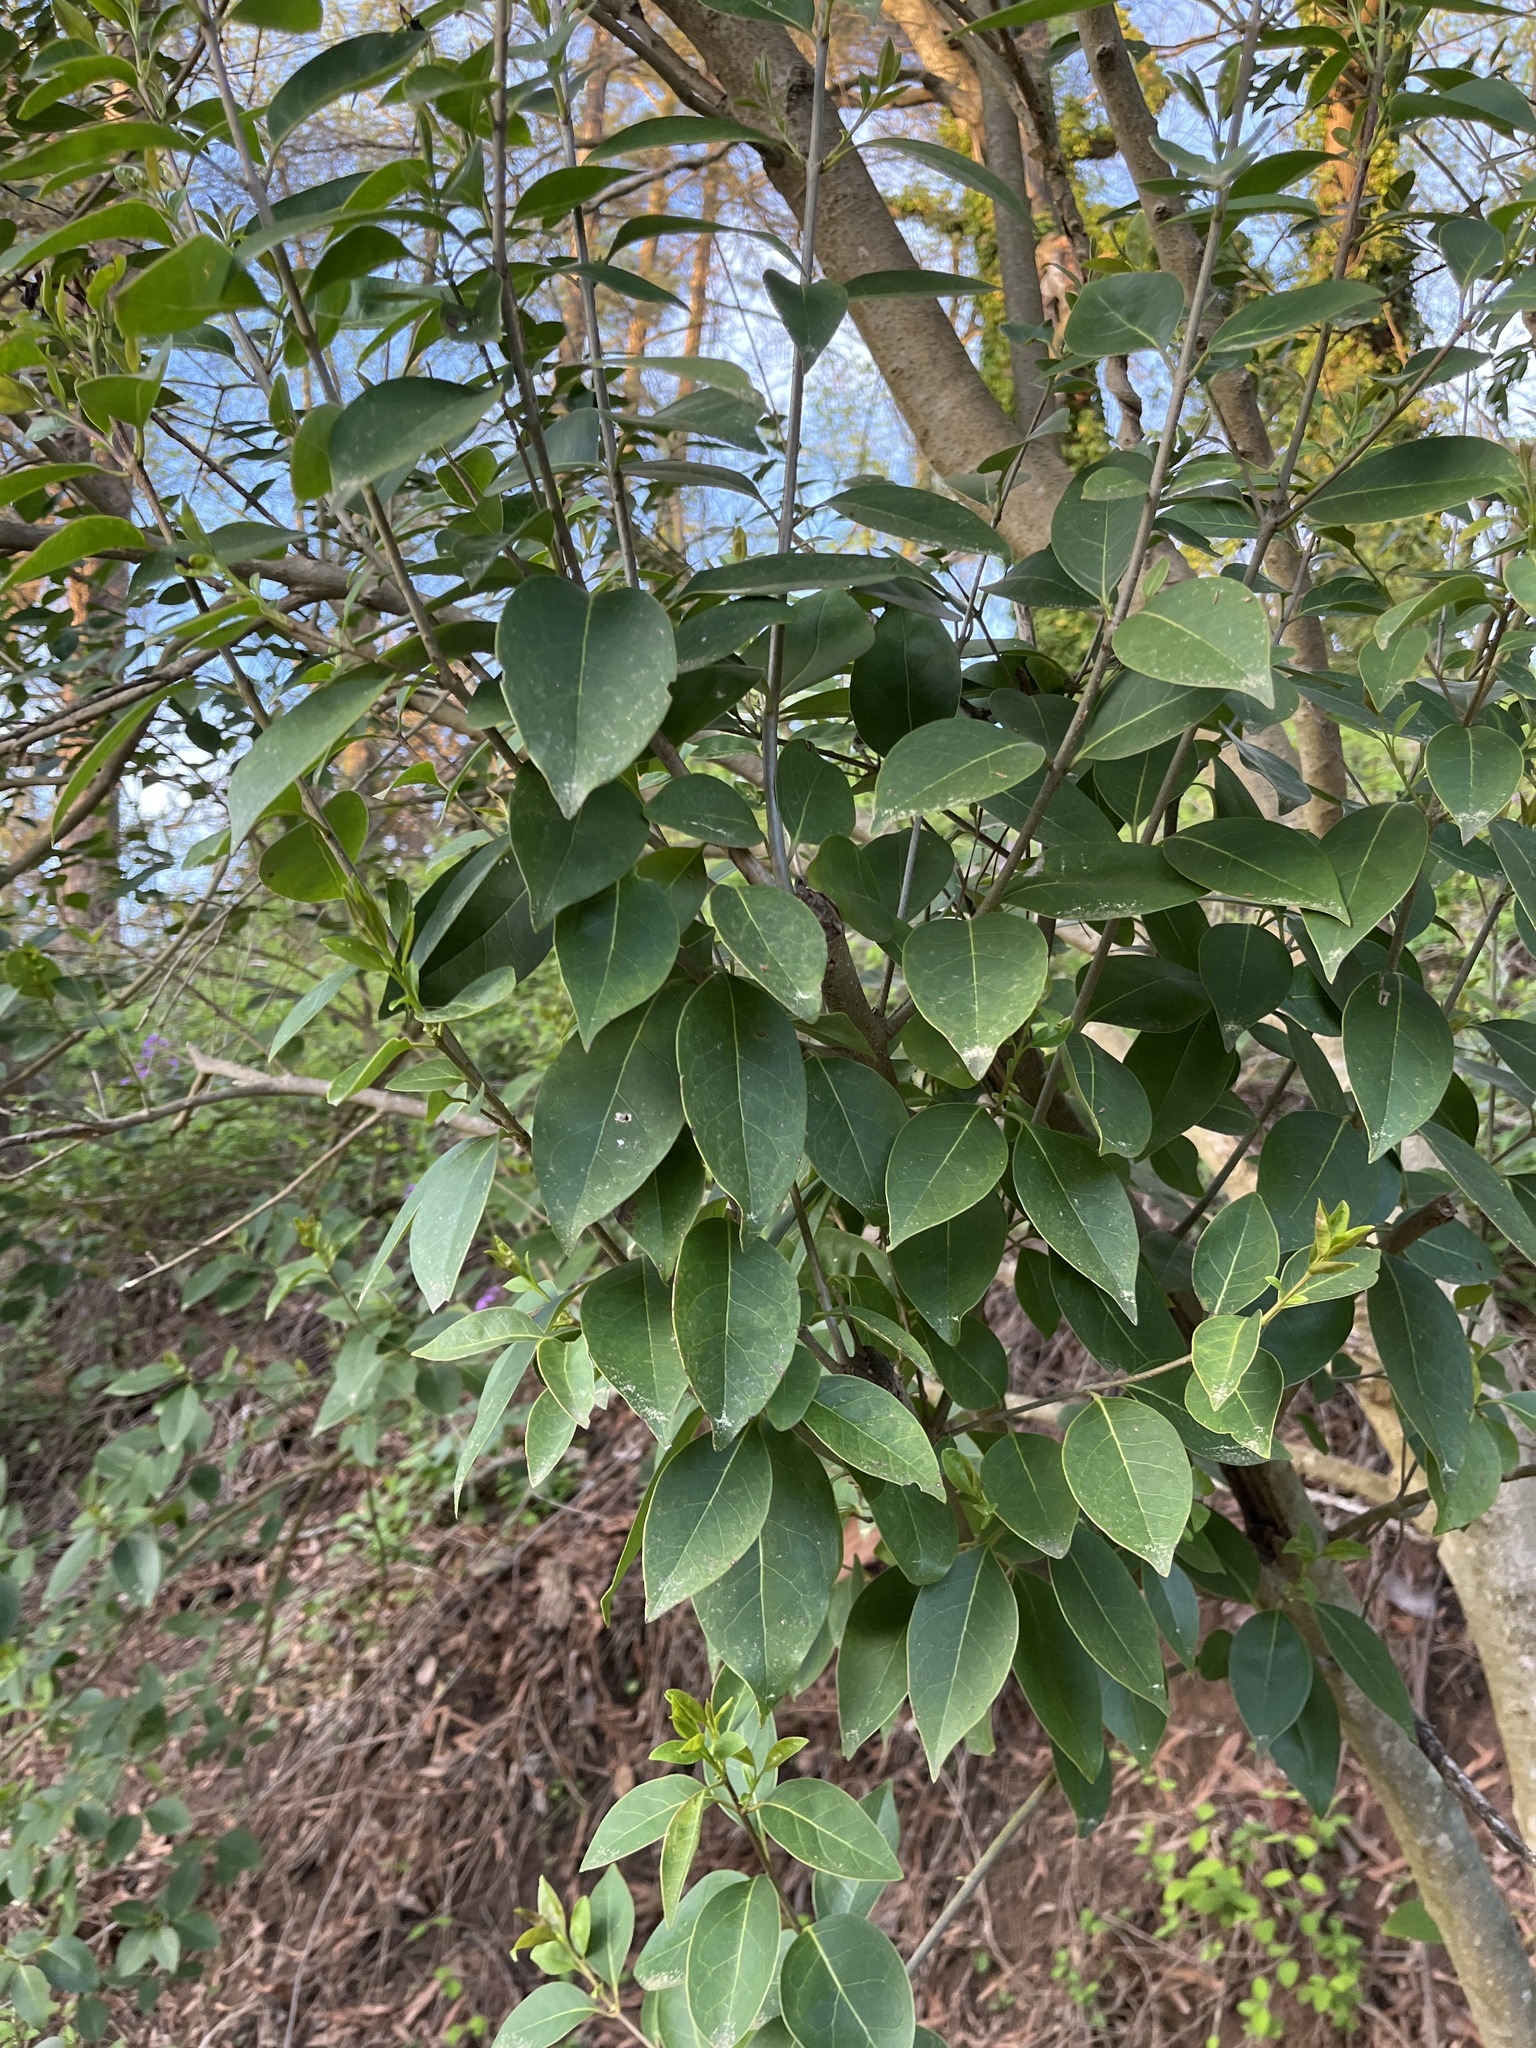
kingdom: Plantae
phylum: Tracheophyta
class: Magnoliopsida
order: Lamiales
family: Oleaceae
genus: Ligustrum
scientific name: Ligustrum lucidum
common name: Glossy privet
